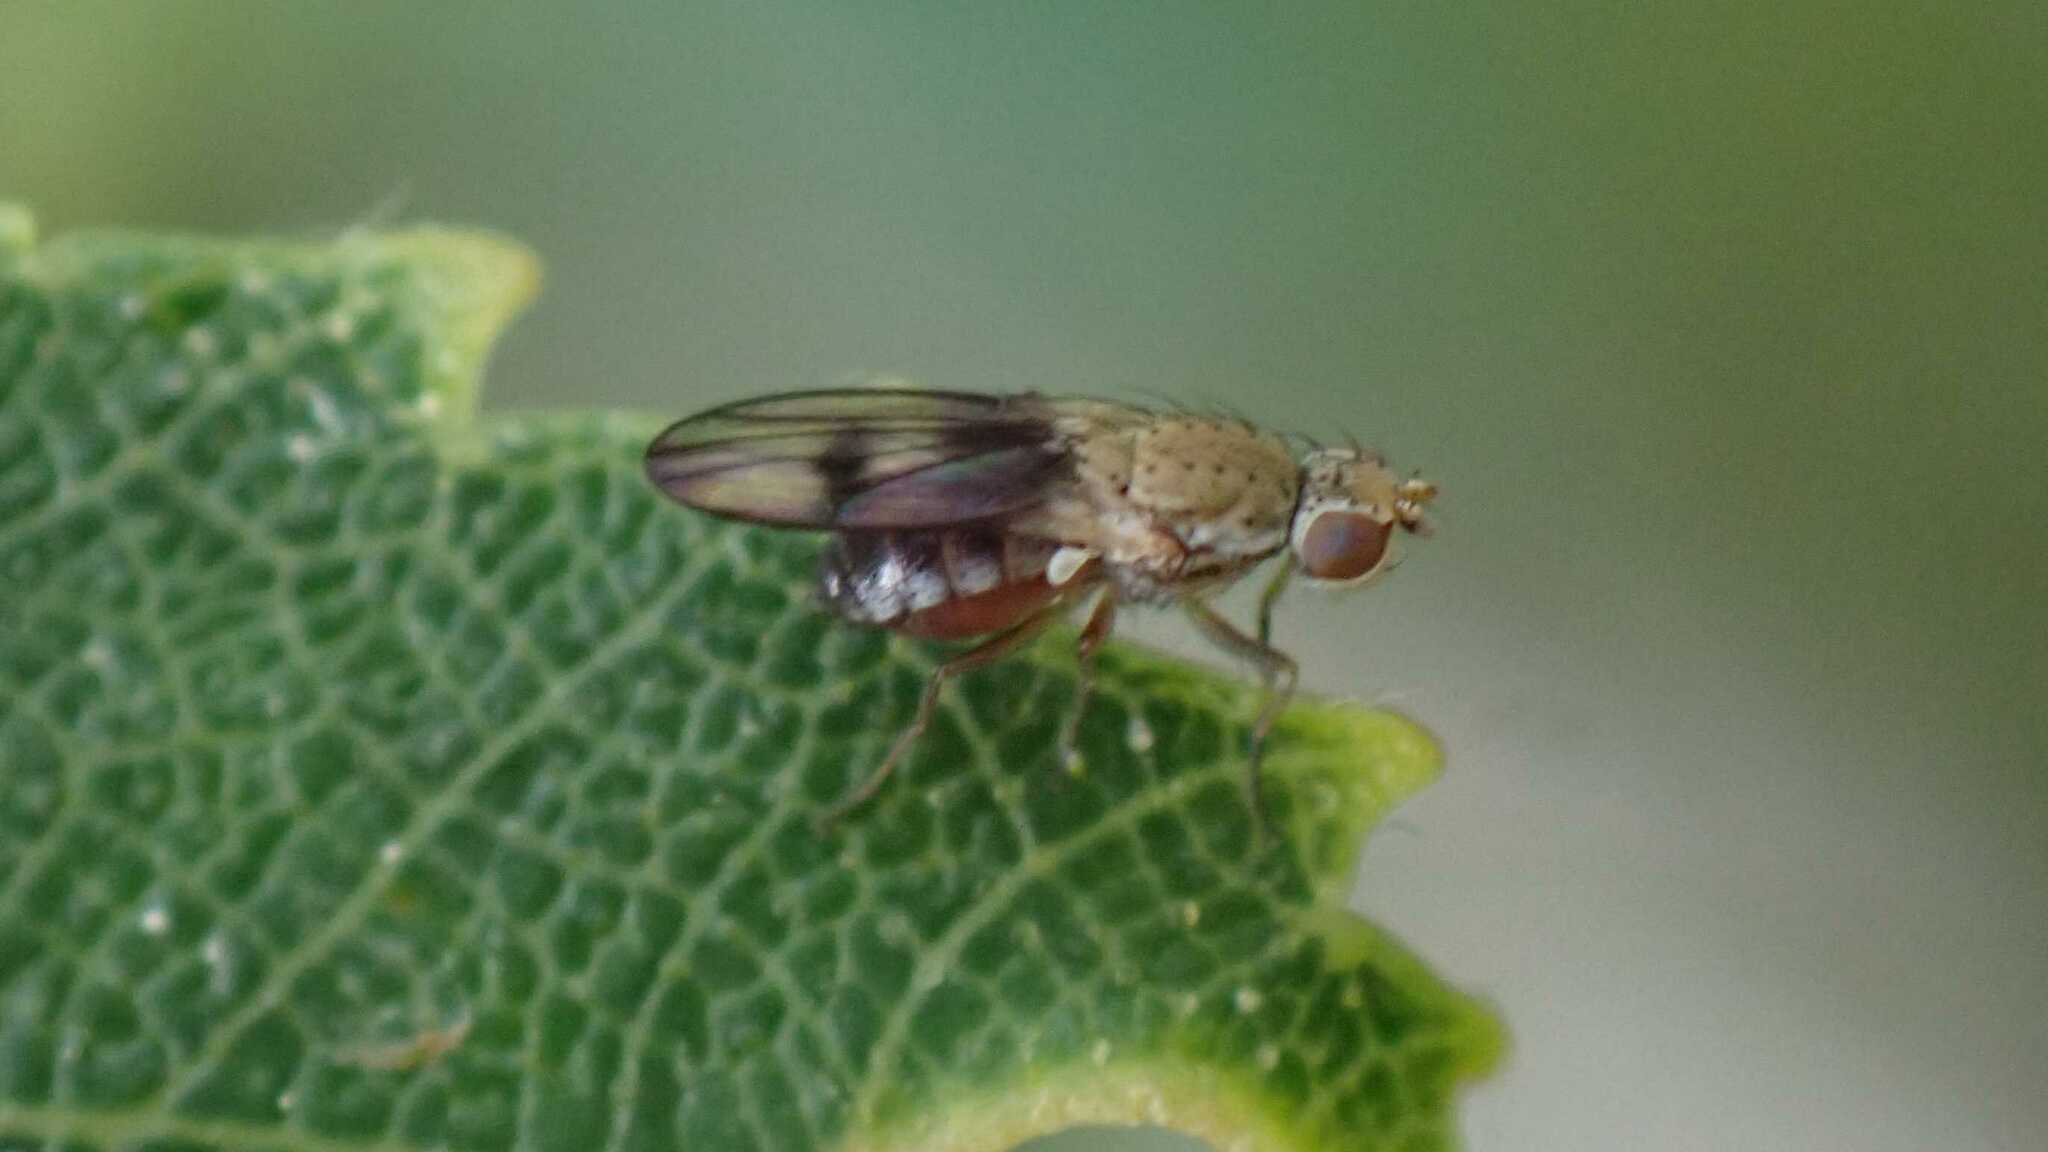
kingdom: Animalia
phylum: Arthropoda
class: Insecta
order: Diptera
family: Heleomyzidae
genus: Trixoscelis
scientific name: Trixoscelis obscurella
